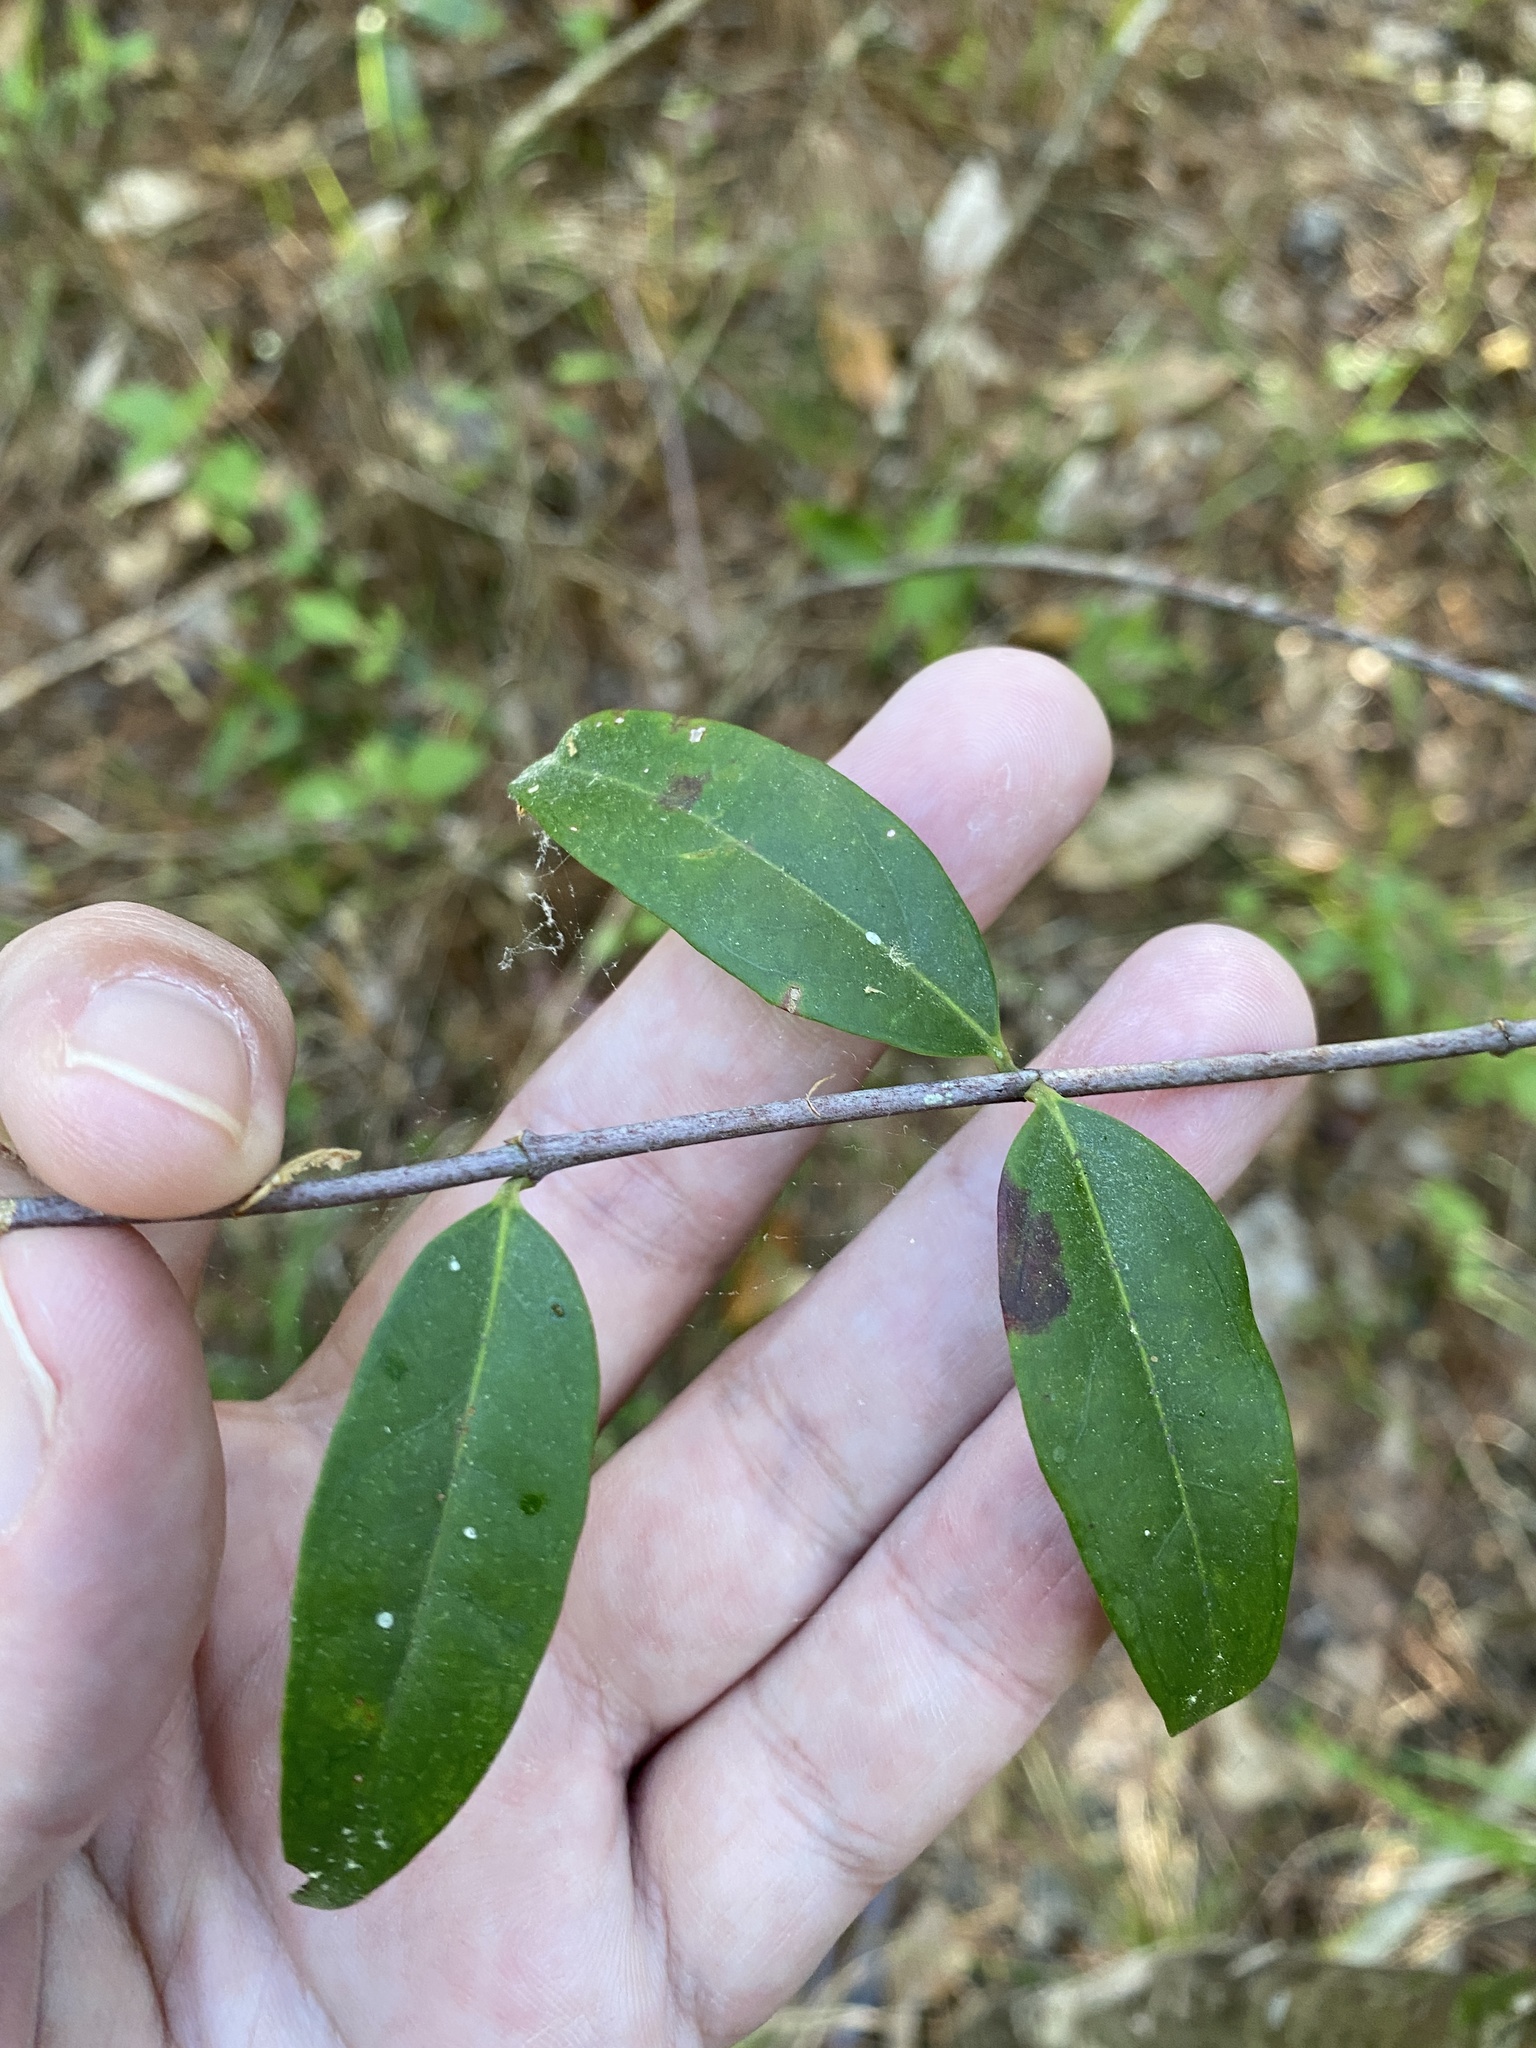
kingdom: Plantae
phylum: Tracheophyta
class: Magnoliopsida
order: Gentianales
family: Gelsemiaceae
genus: Gelsemium
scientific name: Gelsemium sempervirens
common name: Carolina-jasmine
